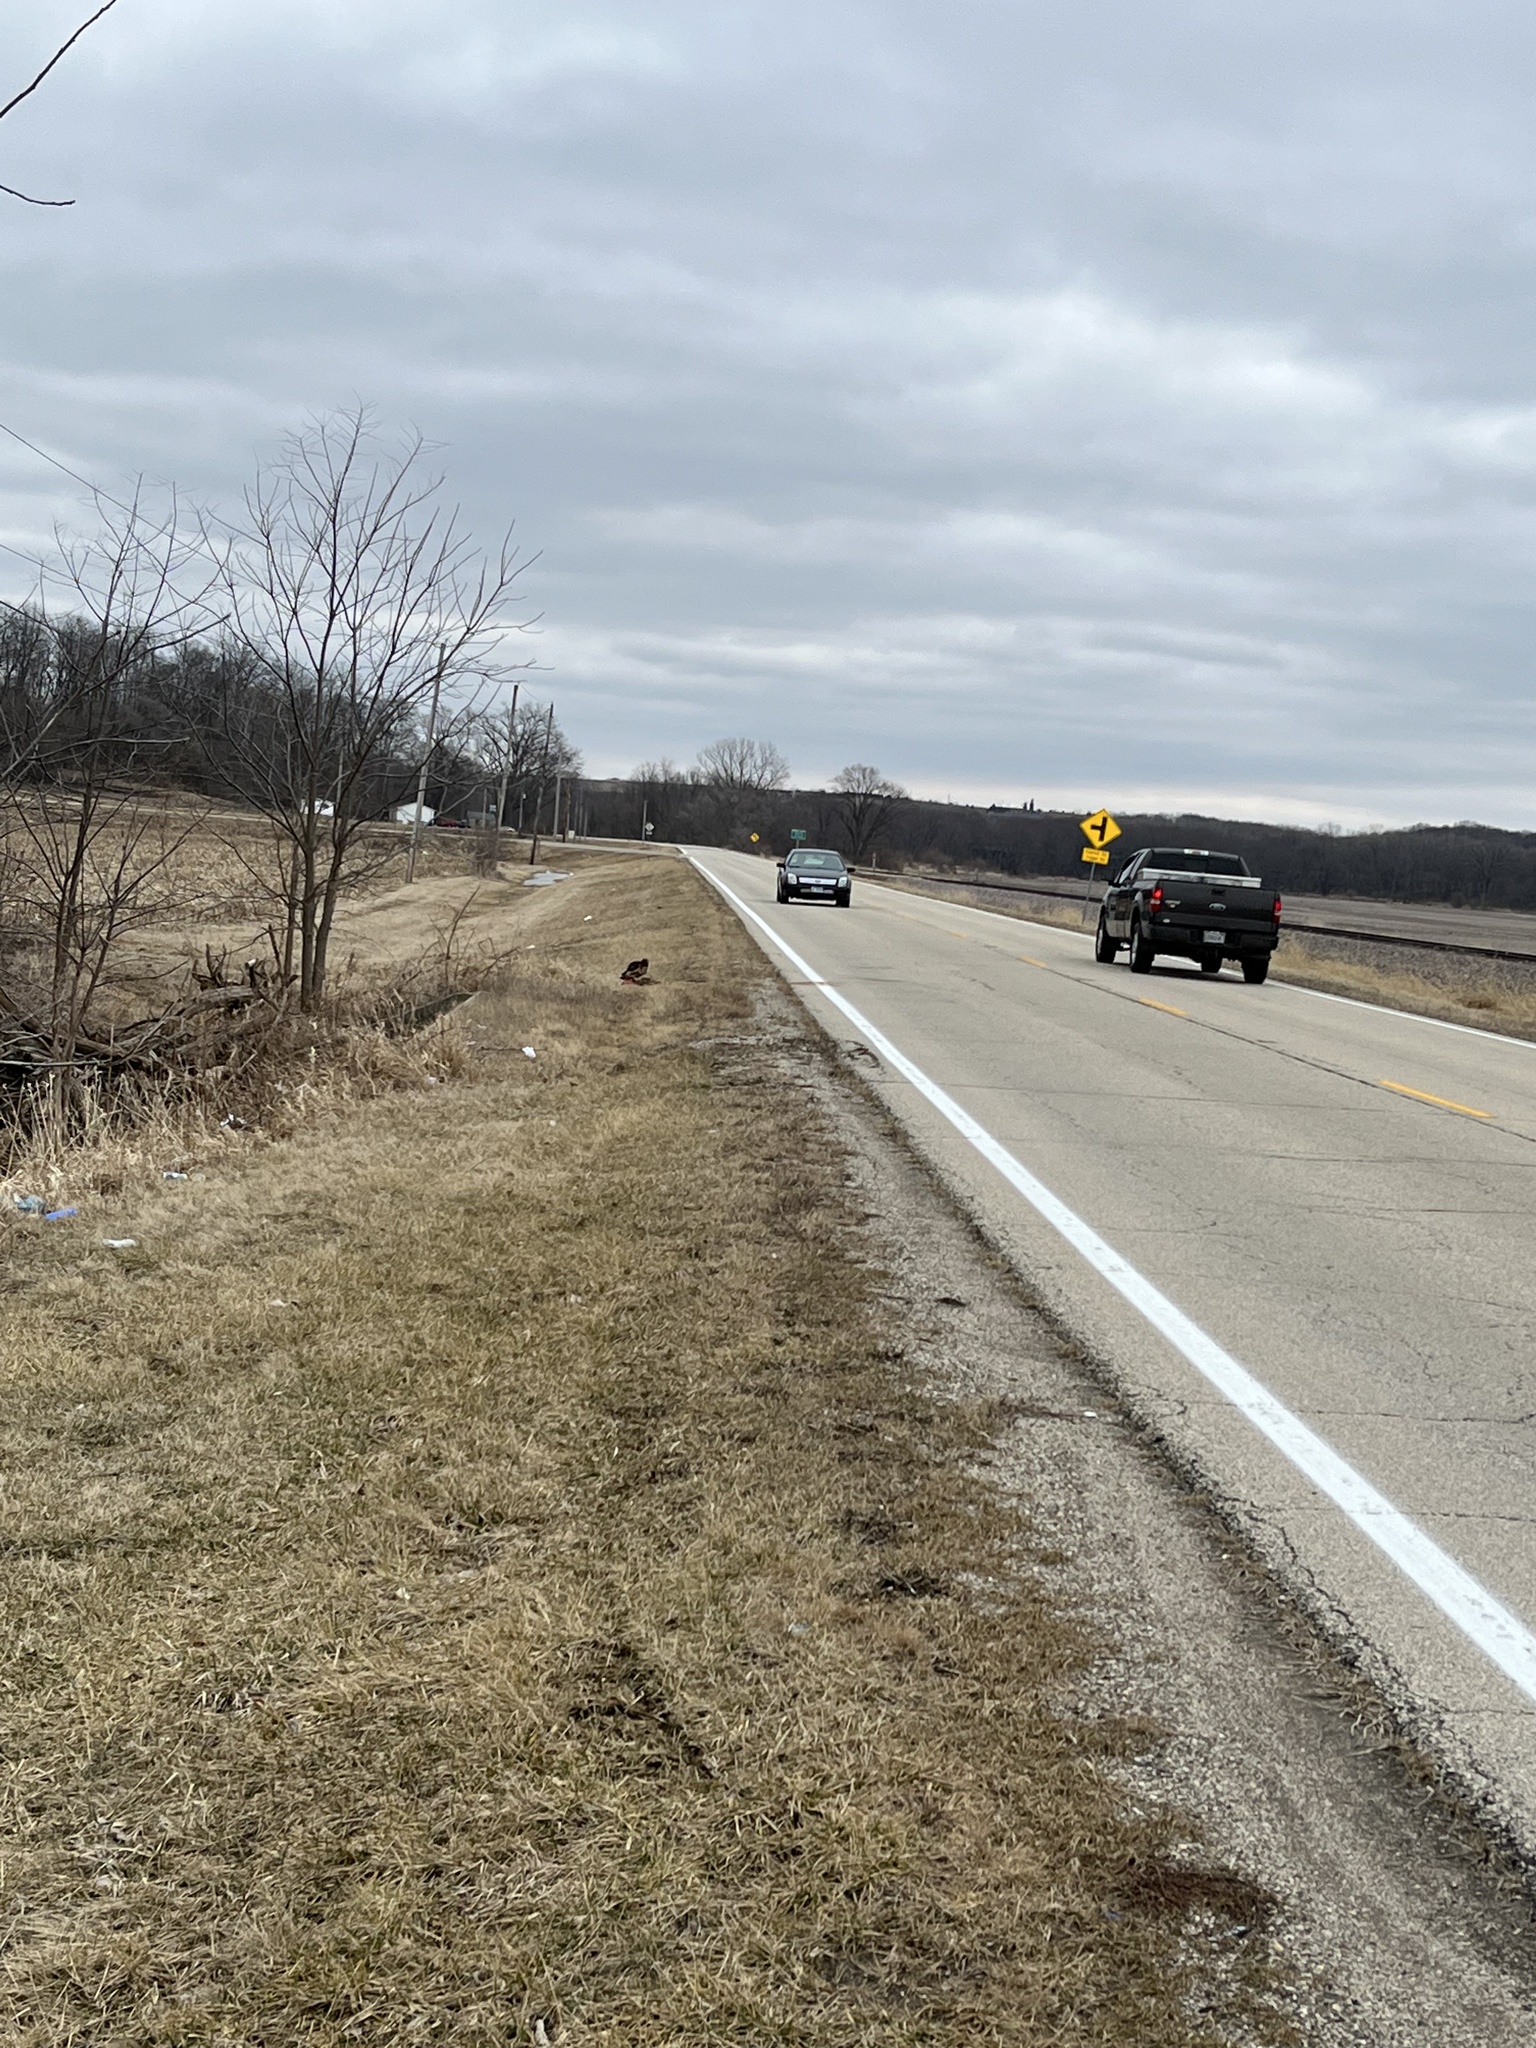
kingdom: Animalia
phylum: Chordata
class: Aves
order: Accipitriformes
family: Accipitridae
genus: Buteo
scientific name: Buteo jamaicensis
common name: Red-tailed hawk
